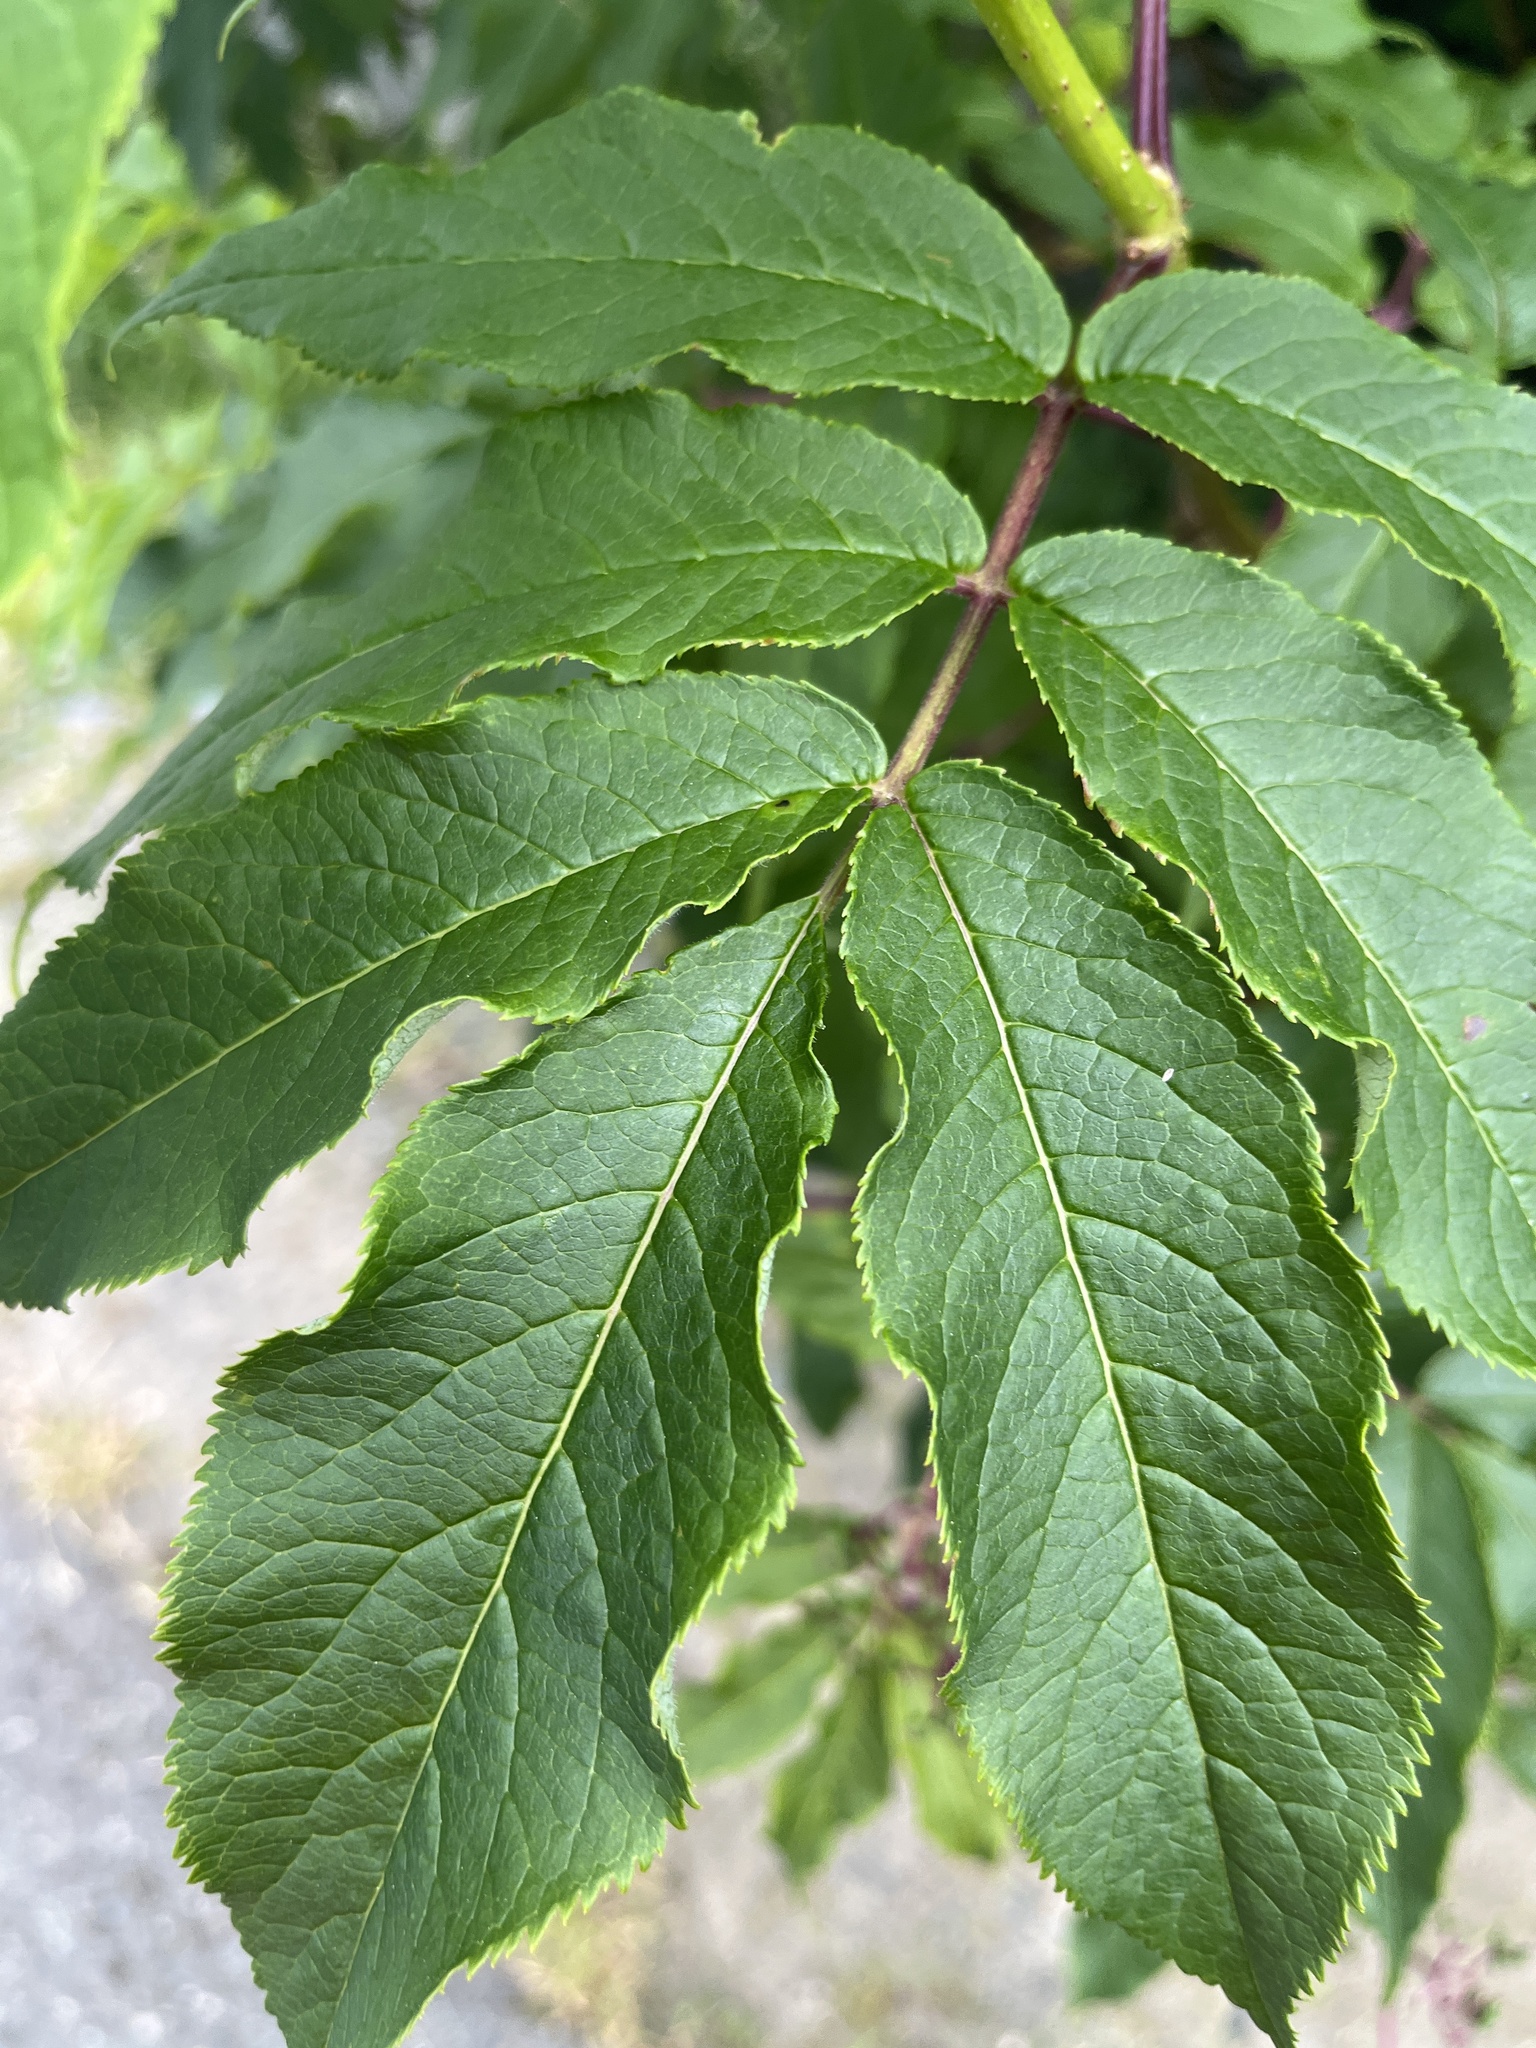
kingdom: Plantae
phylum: Tracheophyta
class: Magnoliopsida
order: Dipsacales
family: Viburnaceae
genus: Sambucus
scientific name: Sambucus racemosa
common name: Red-berried elder
